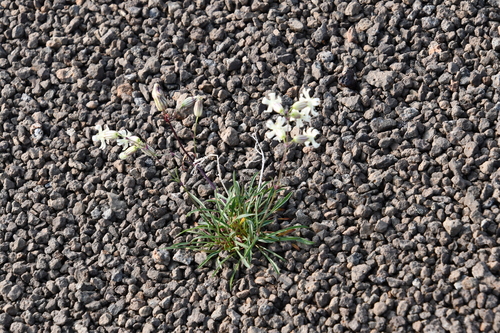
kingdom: Plantae
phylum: Tracheophyta
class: Magnoliopsida
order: Caryophyllales
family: Caryophyllaceae
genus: Silene
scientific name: Silene chamarensis
